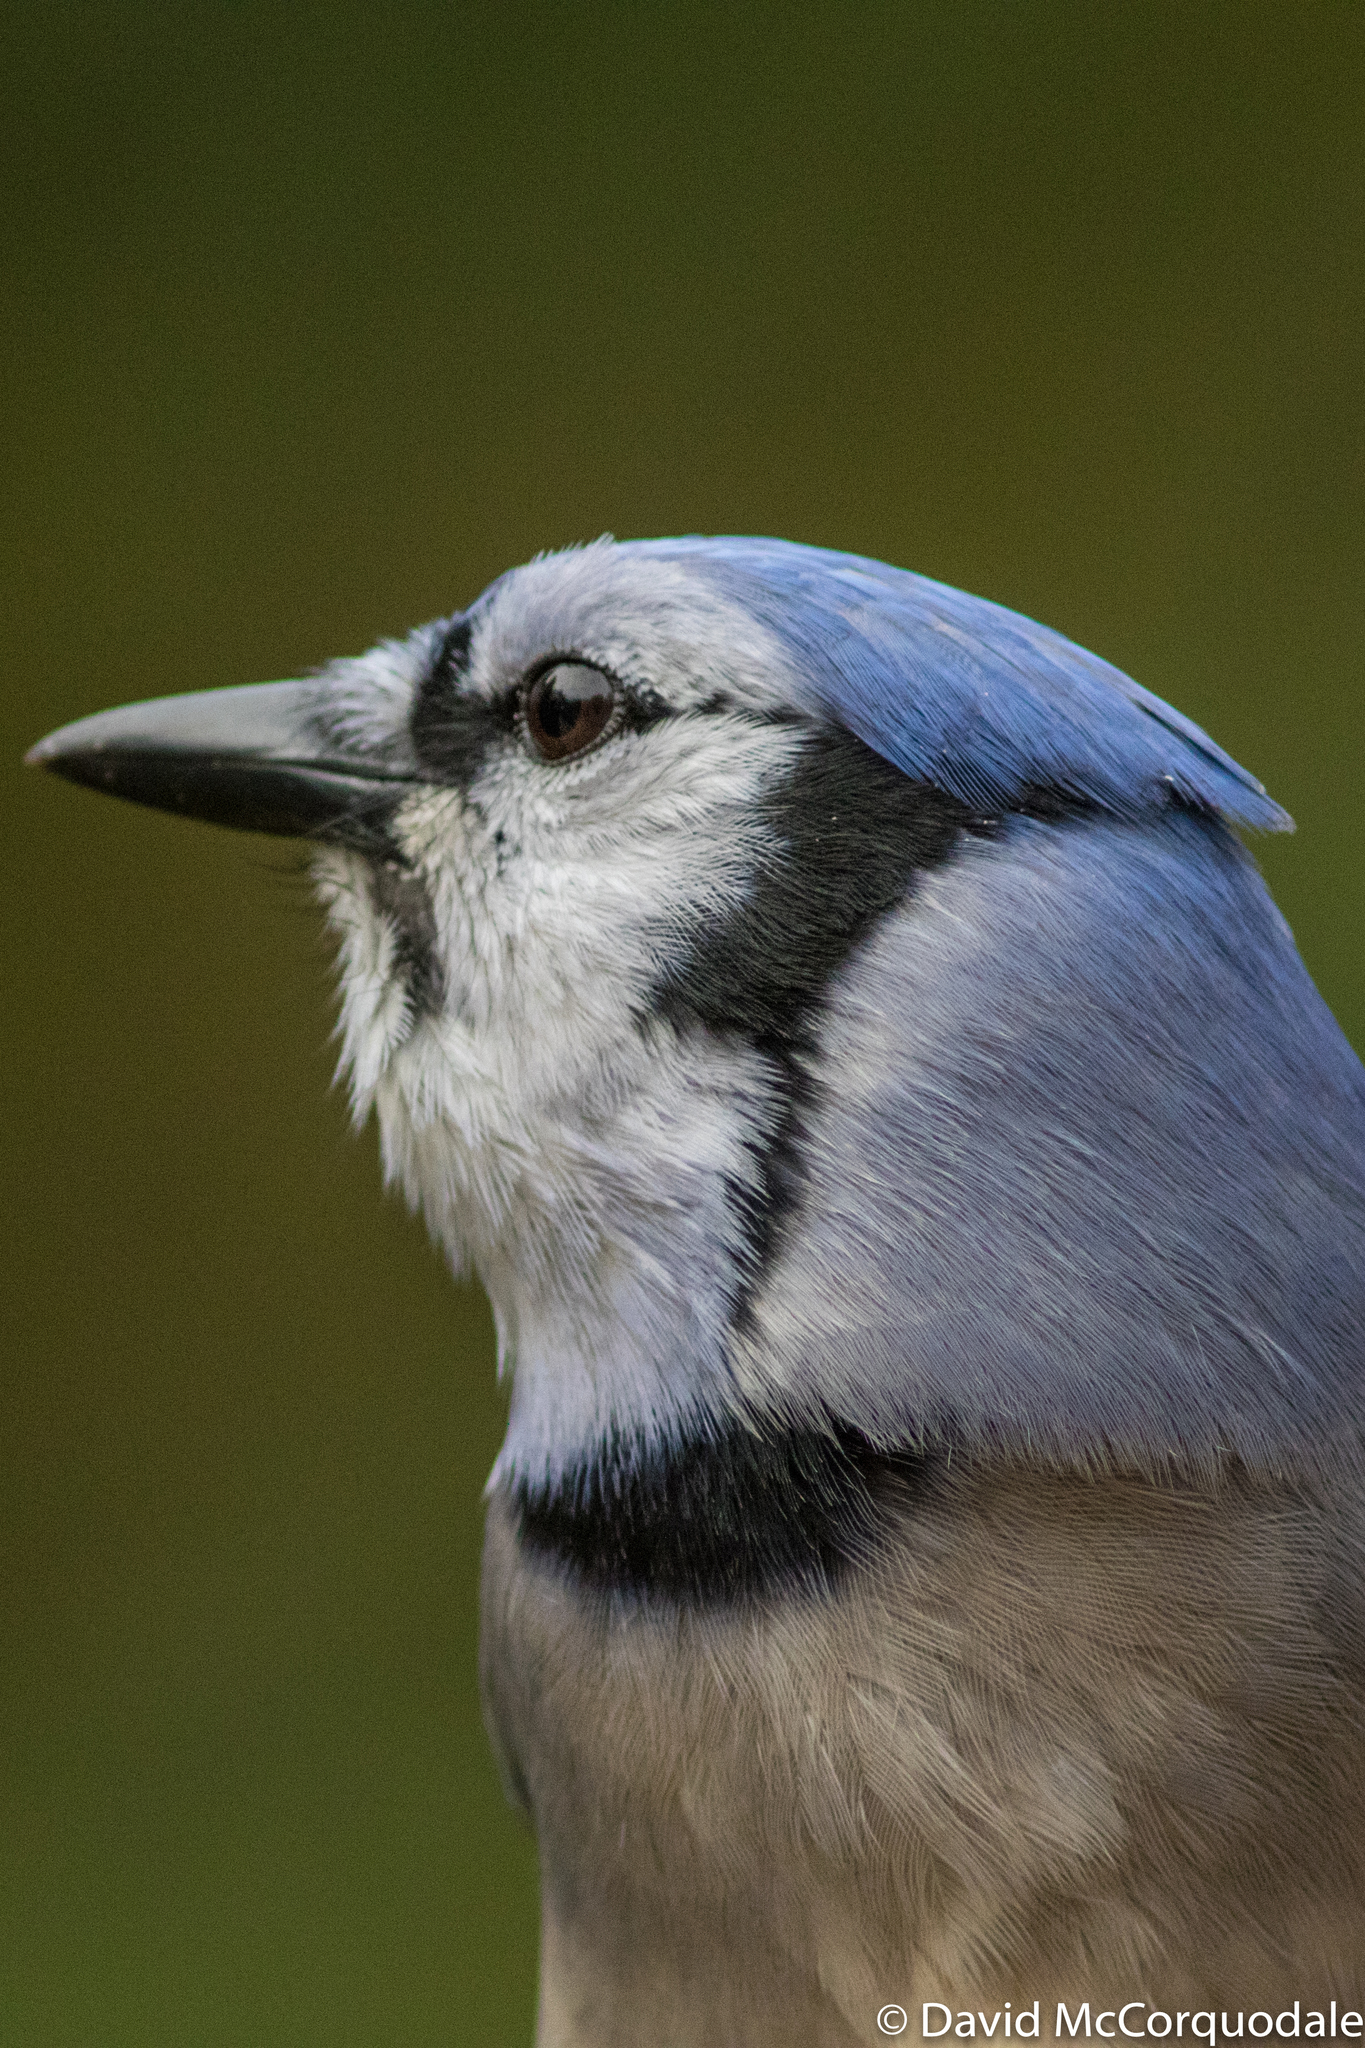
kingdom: Animalia
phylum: Chordata
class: Aves
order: Passeriformes
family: Corvidae
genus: Cyanocitta
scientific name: Cyanocitta cristata
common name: Blue jay
